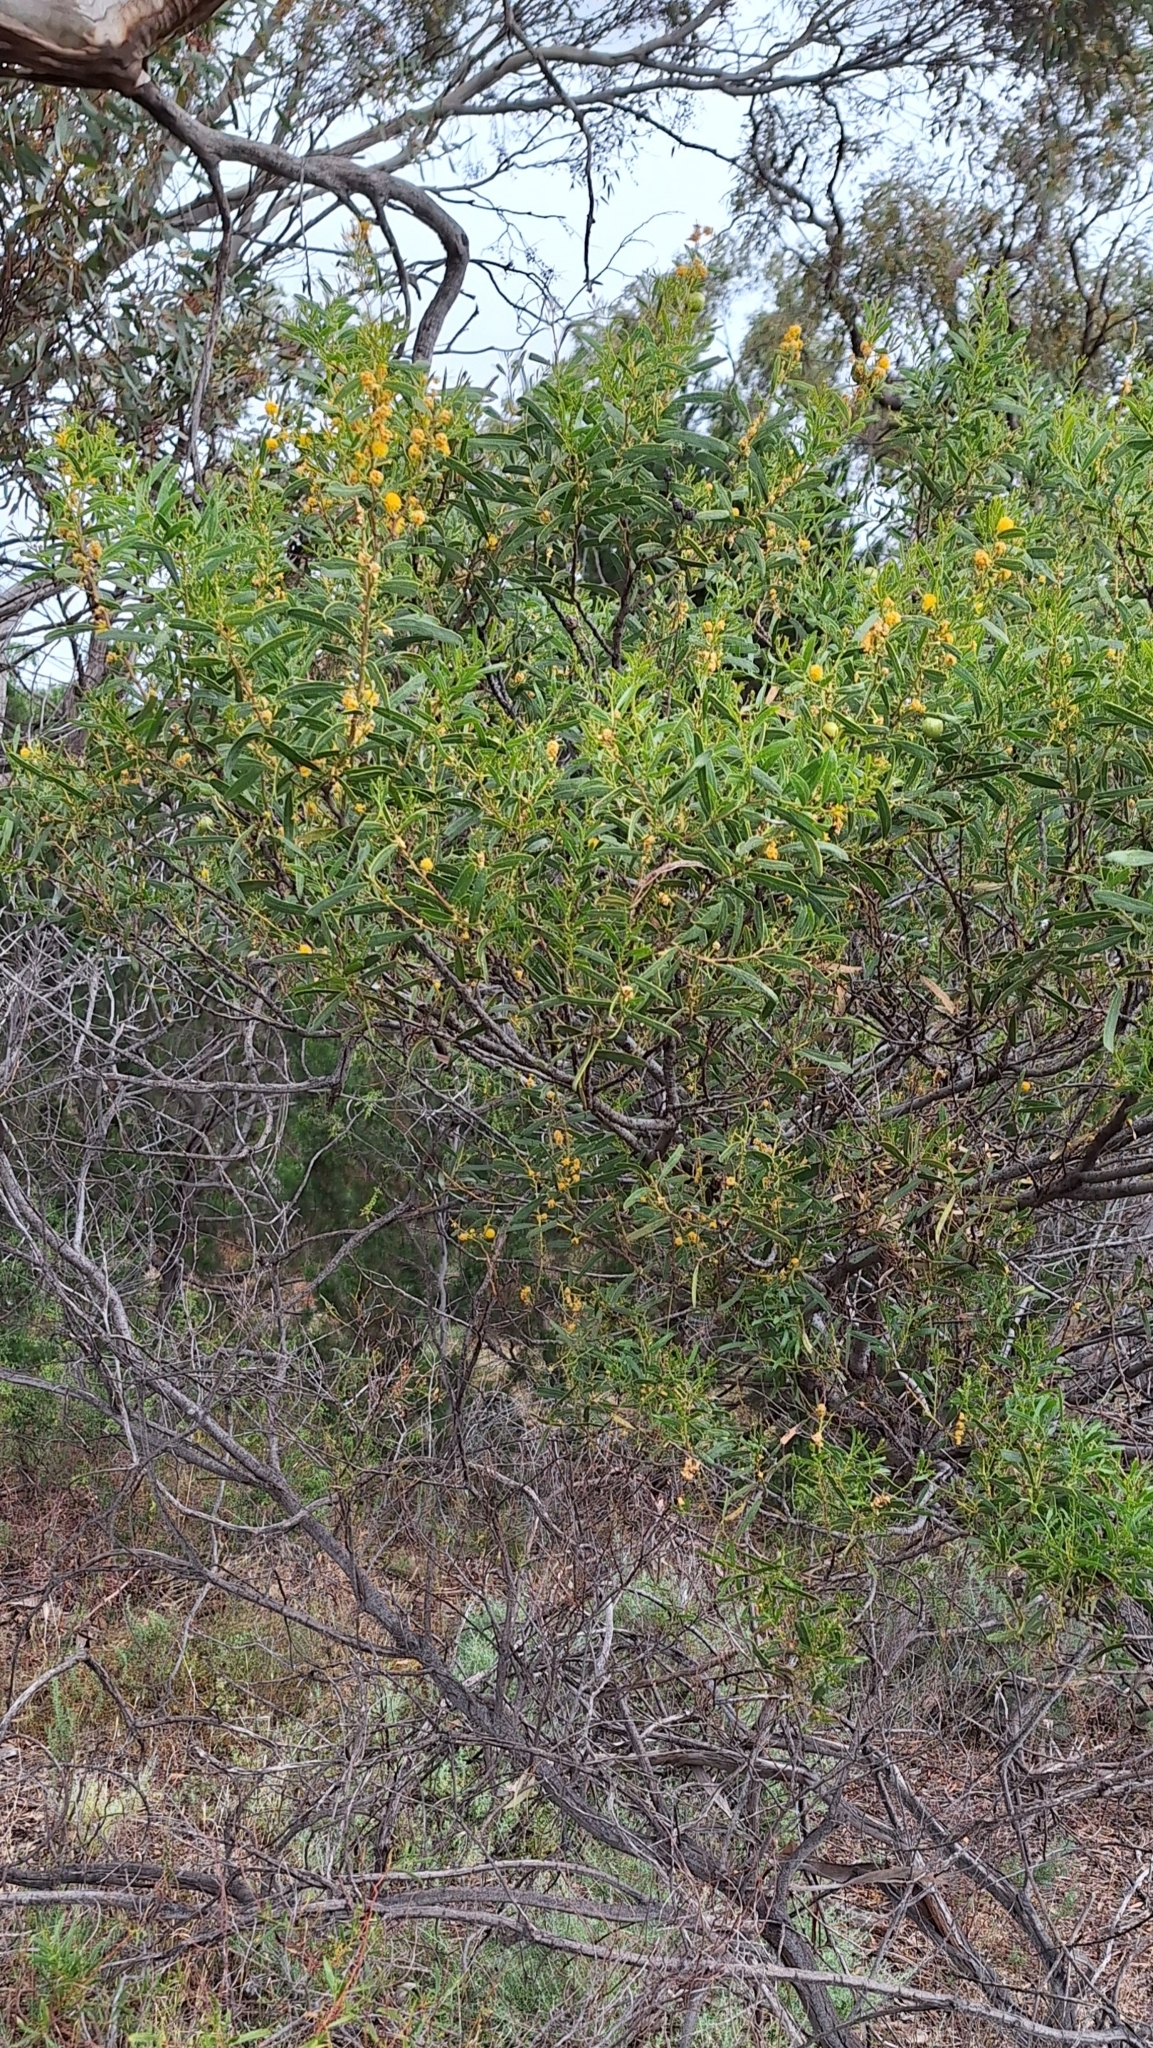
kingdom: Plantae
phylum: Tracheophyta
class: Magnoliopsida
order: Fabales
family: Fabaceae
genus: Acacia
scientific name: Acacia ligulata
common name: Dune wattle
